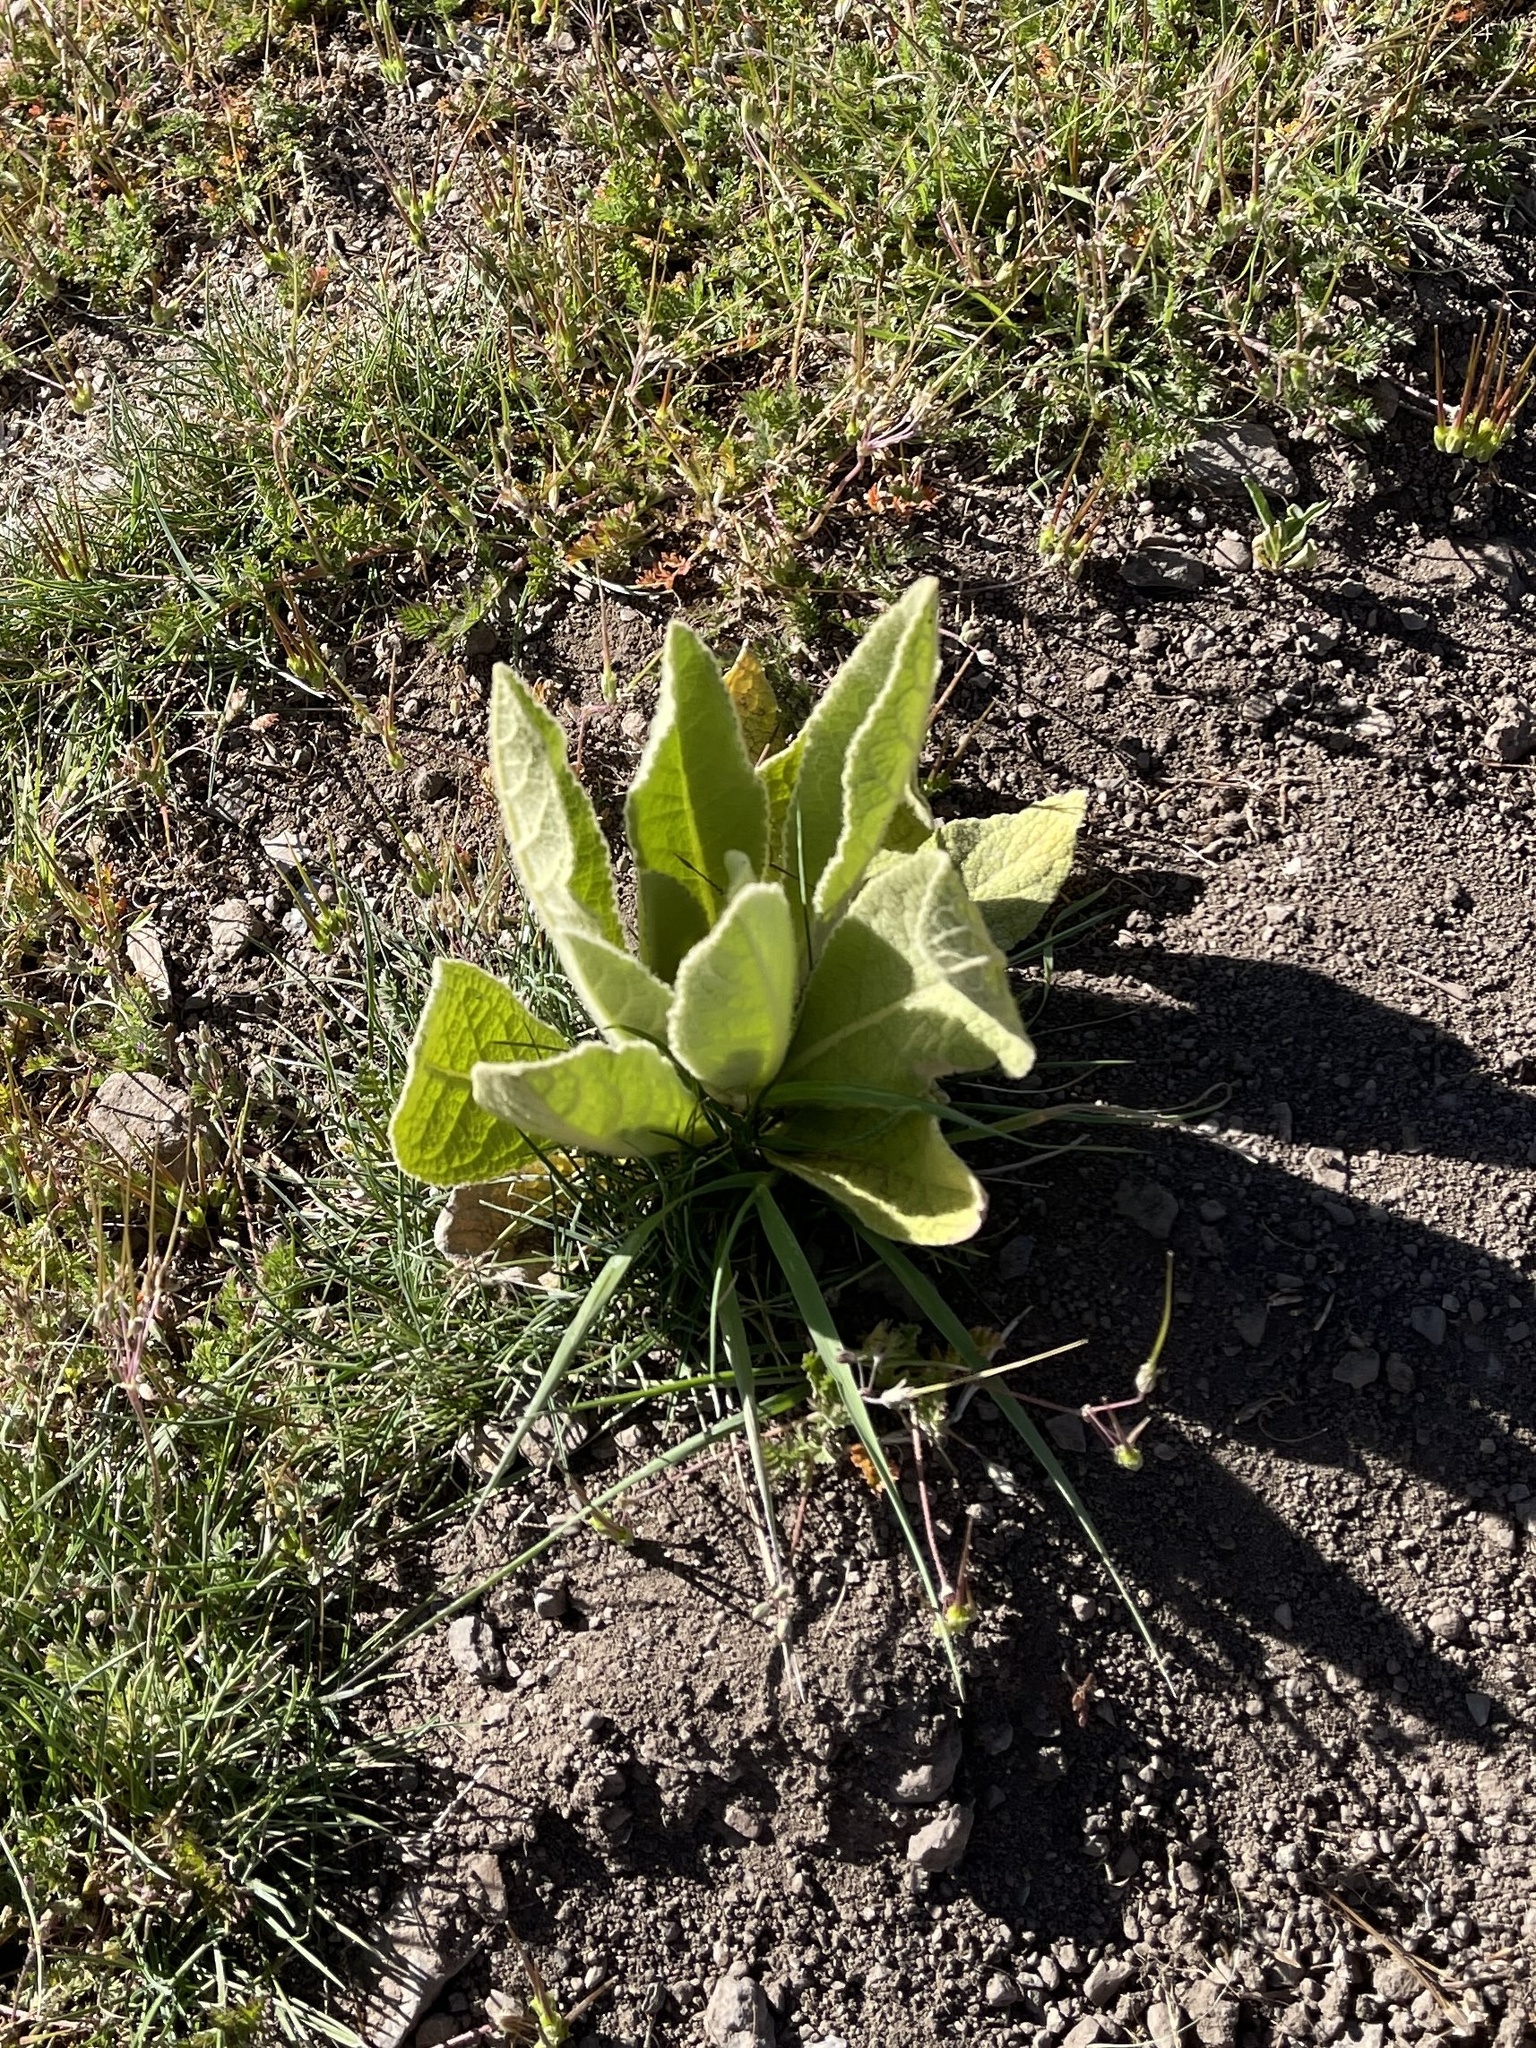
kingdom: Plantae
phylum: Tracheophyta
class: Magnoliopsida
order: Lamiales
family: Scrophulariaceae
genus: Verbascum
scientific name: Verbascum thapsus
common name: Common mullein
